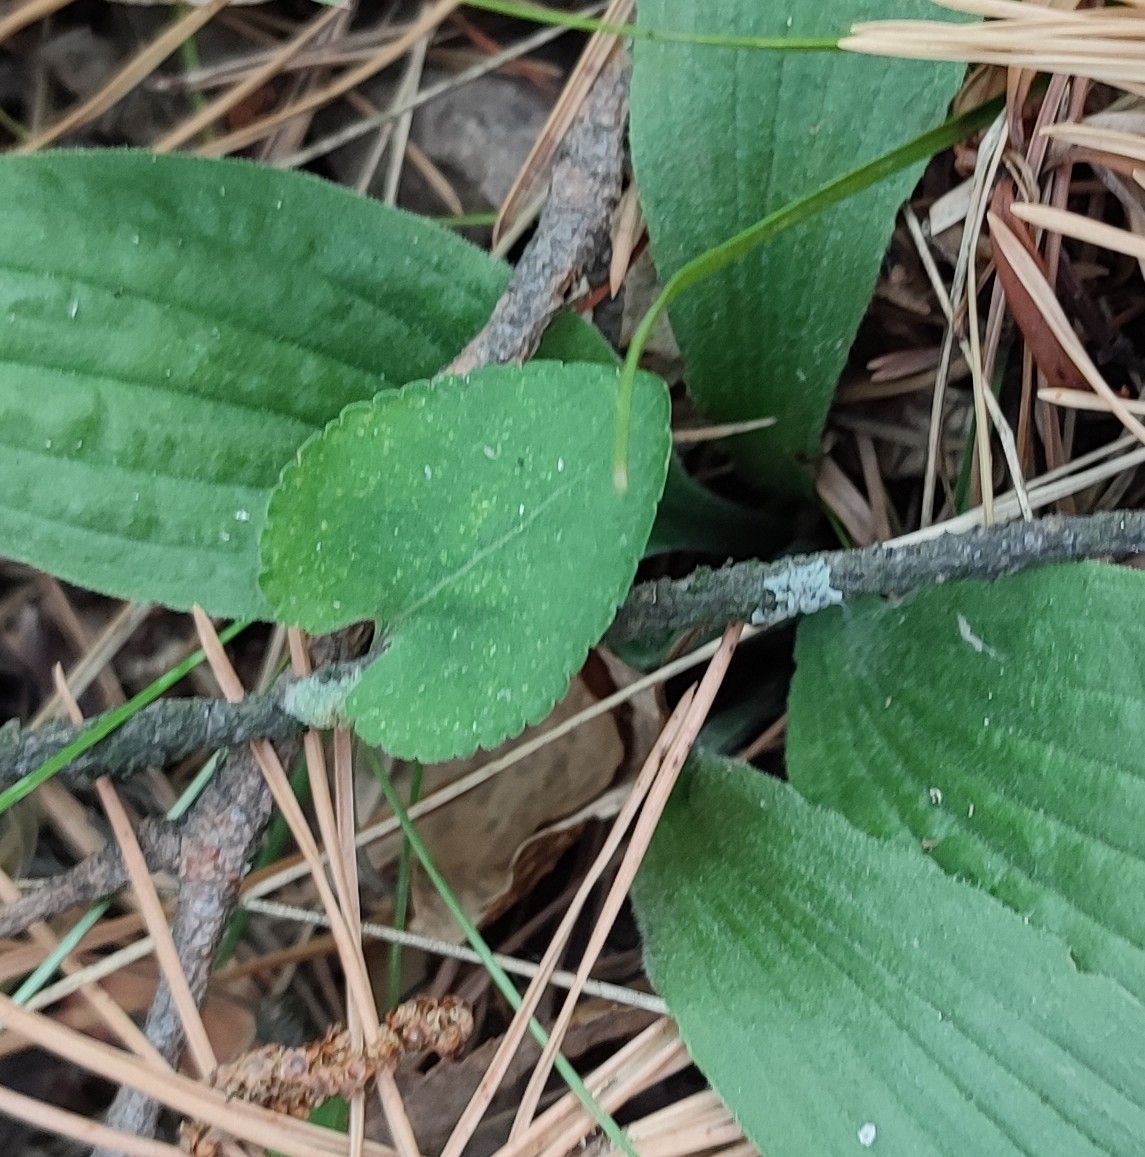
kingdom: Plantae
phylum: Tracheophyta
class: Magnoliopsida
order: Malpighiales
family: Violaceae
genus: Viola
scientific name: Viola rupestris
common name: Teesdale violet
